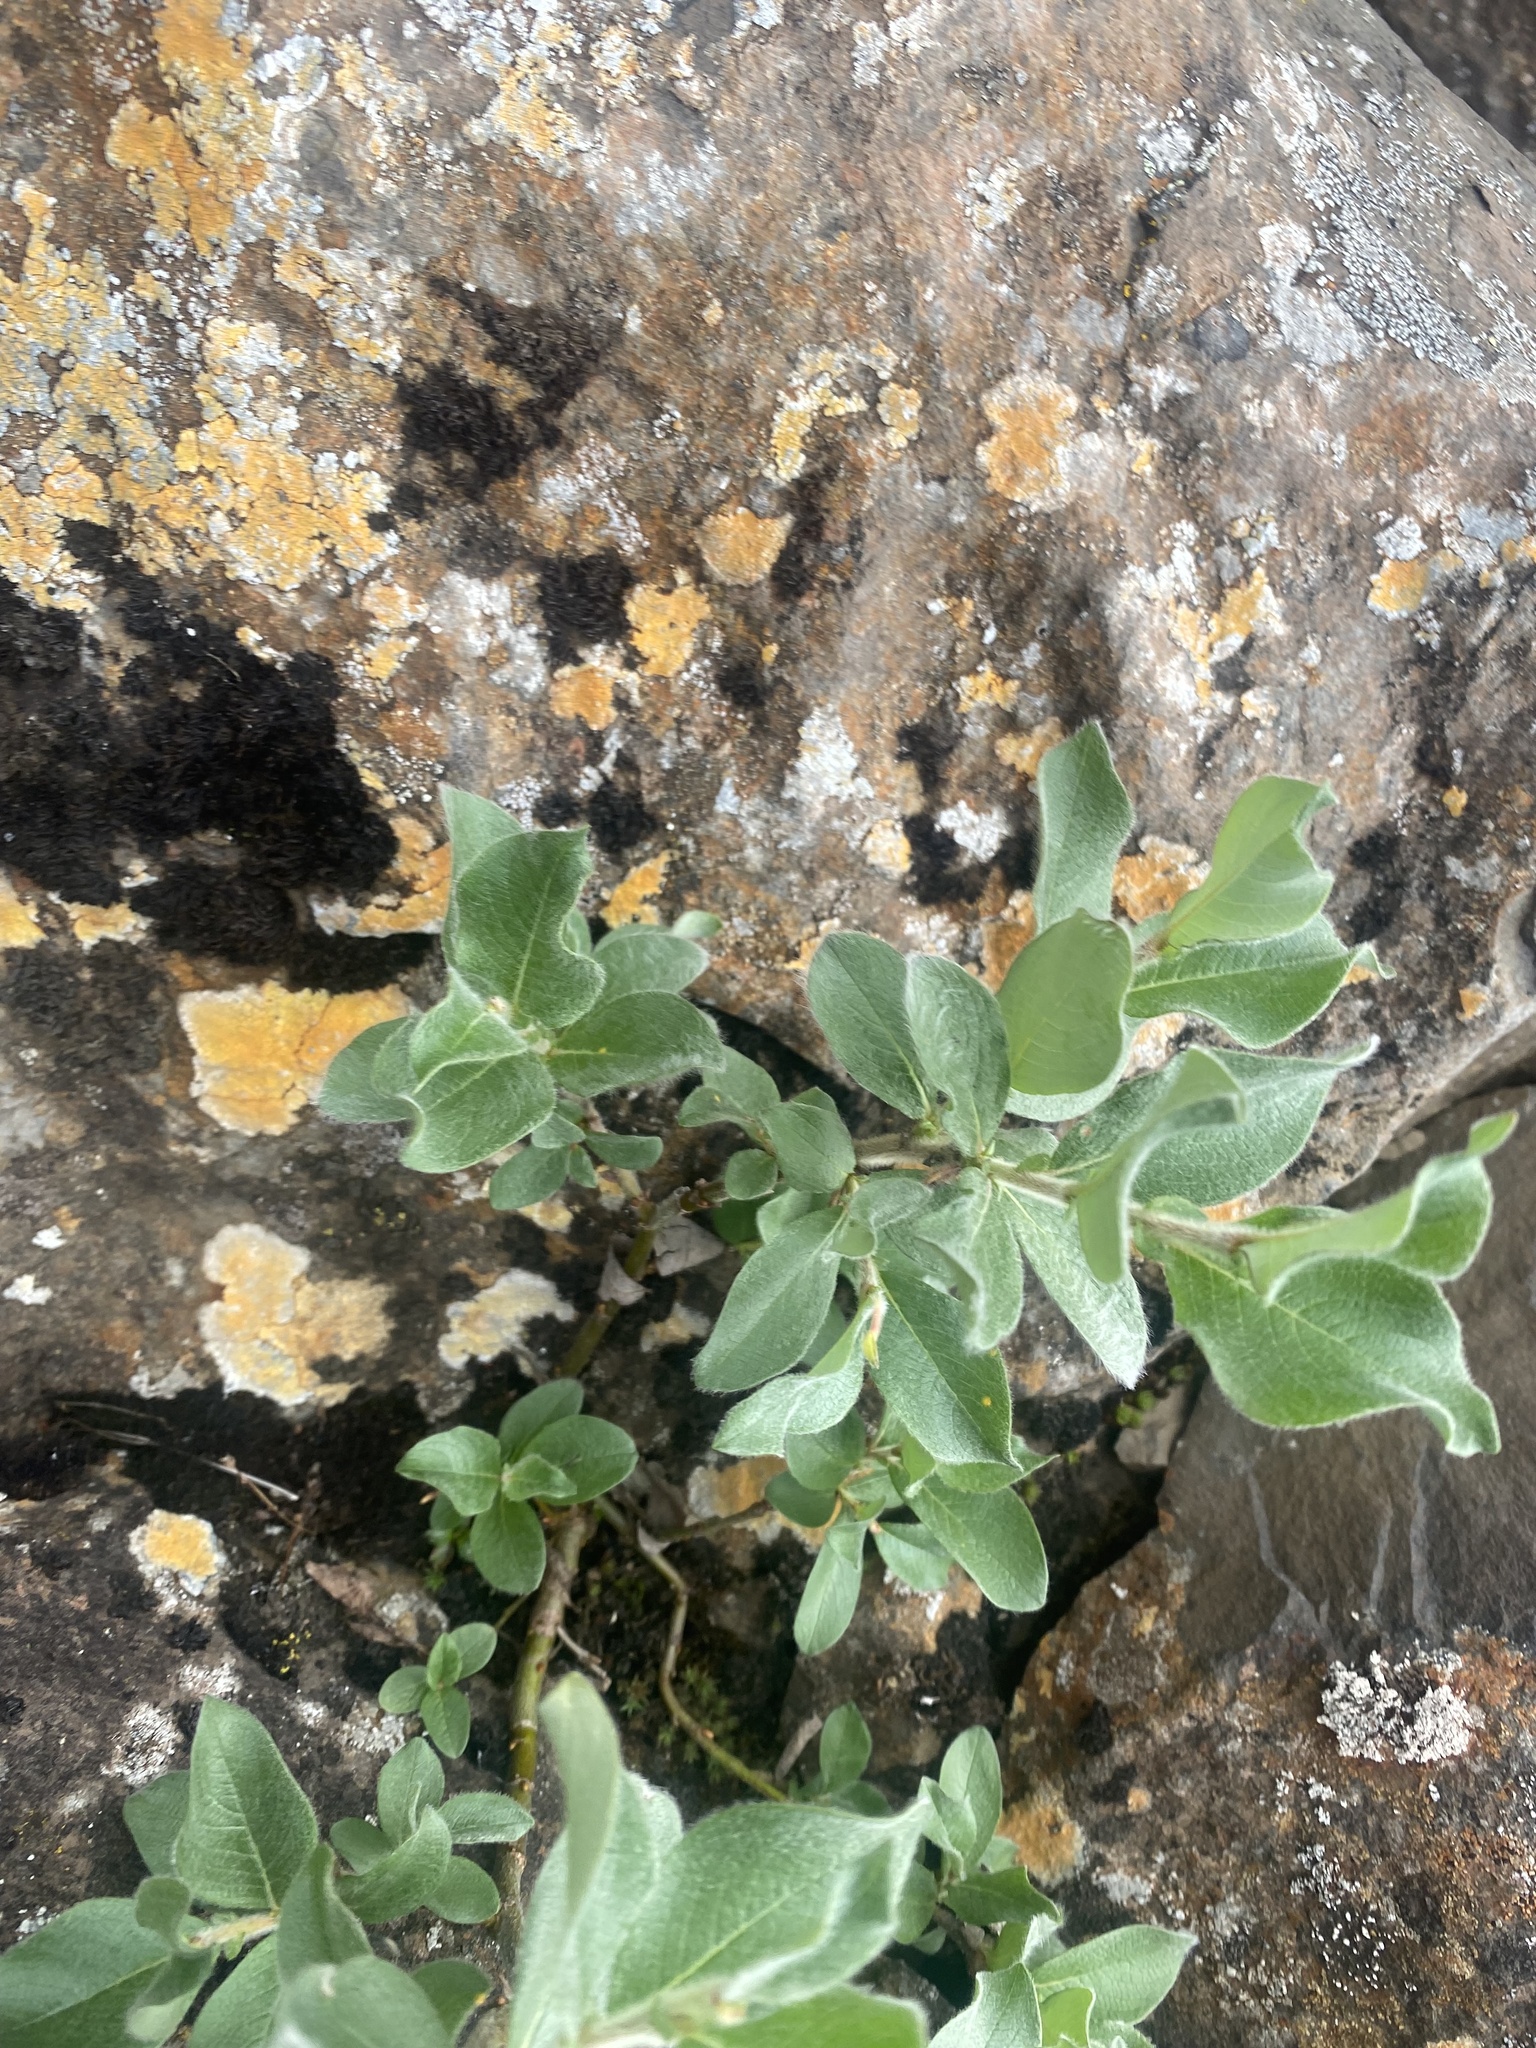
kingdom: Plantae
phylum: Tracheophyta
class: Magnoliopsida
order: Malpighiales
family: Salicaceae
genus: Salix
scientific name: Salix lanata
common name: Woolly willow
